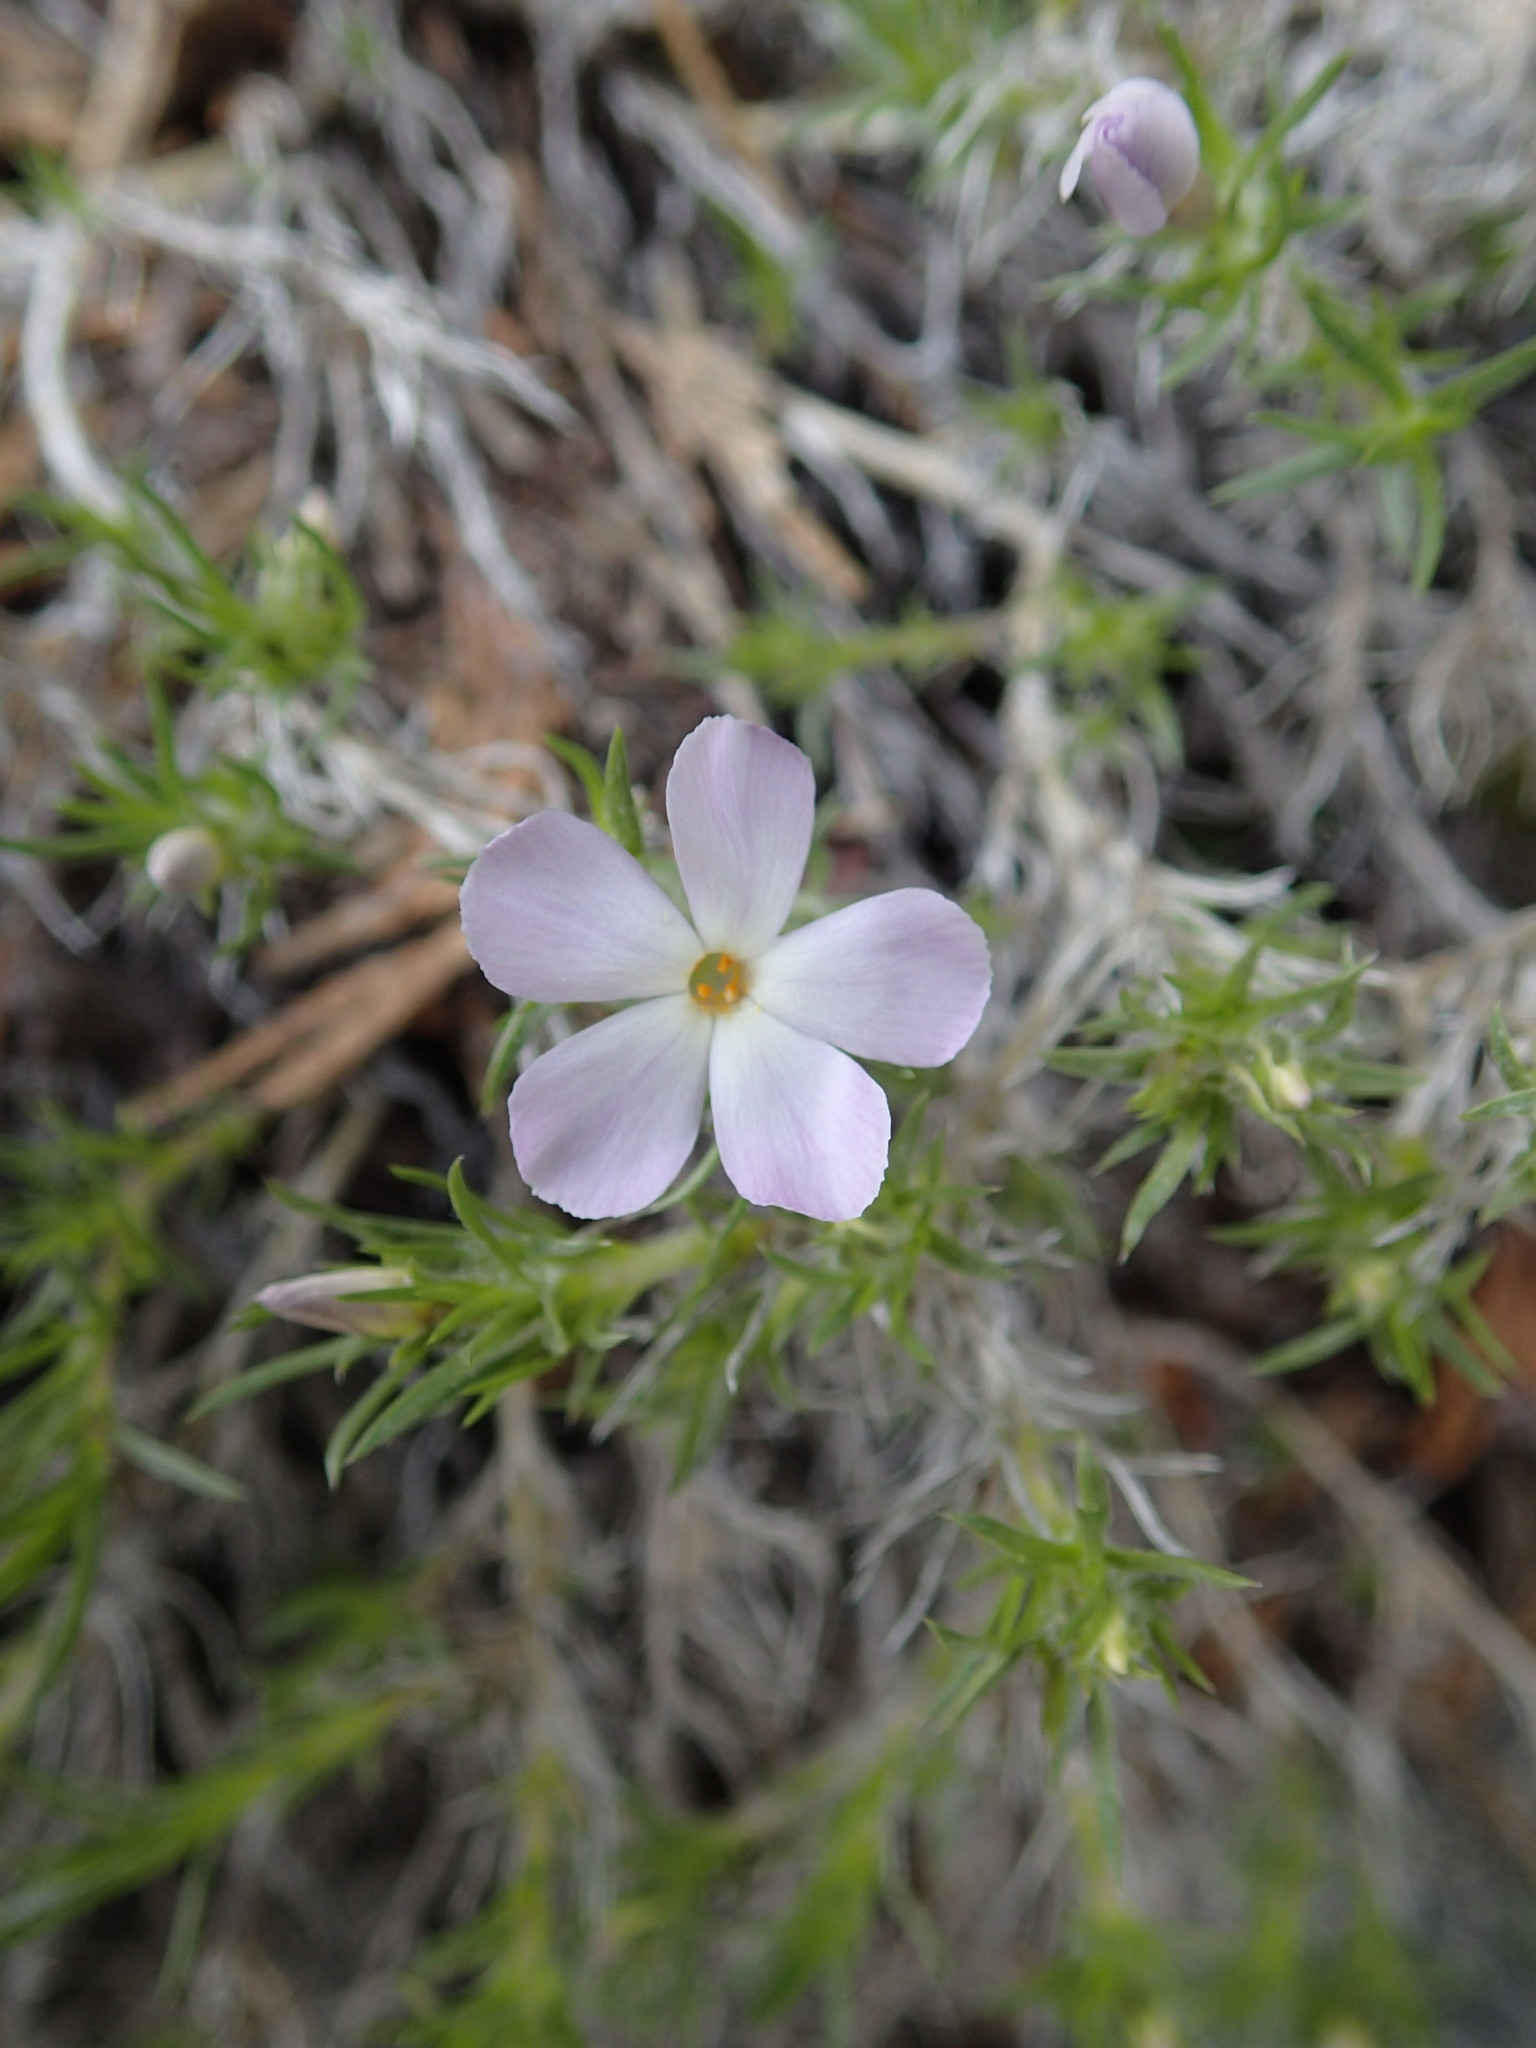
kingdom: Plantae
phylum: Tracheophyta
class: Magnoliopsida
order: Ericales
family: Polemoniaceae
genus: Phlox
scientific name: Phlox diffusa
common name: Mat phlox
